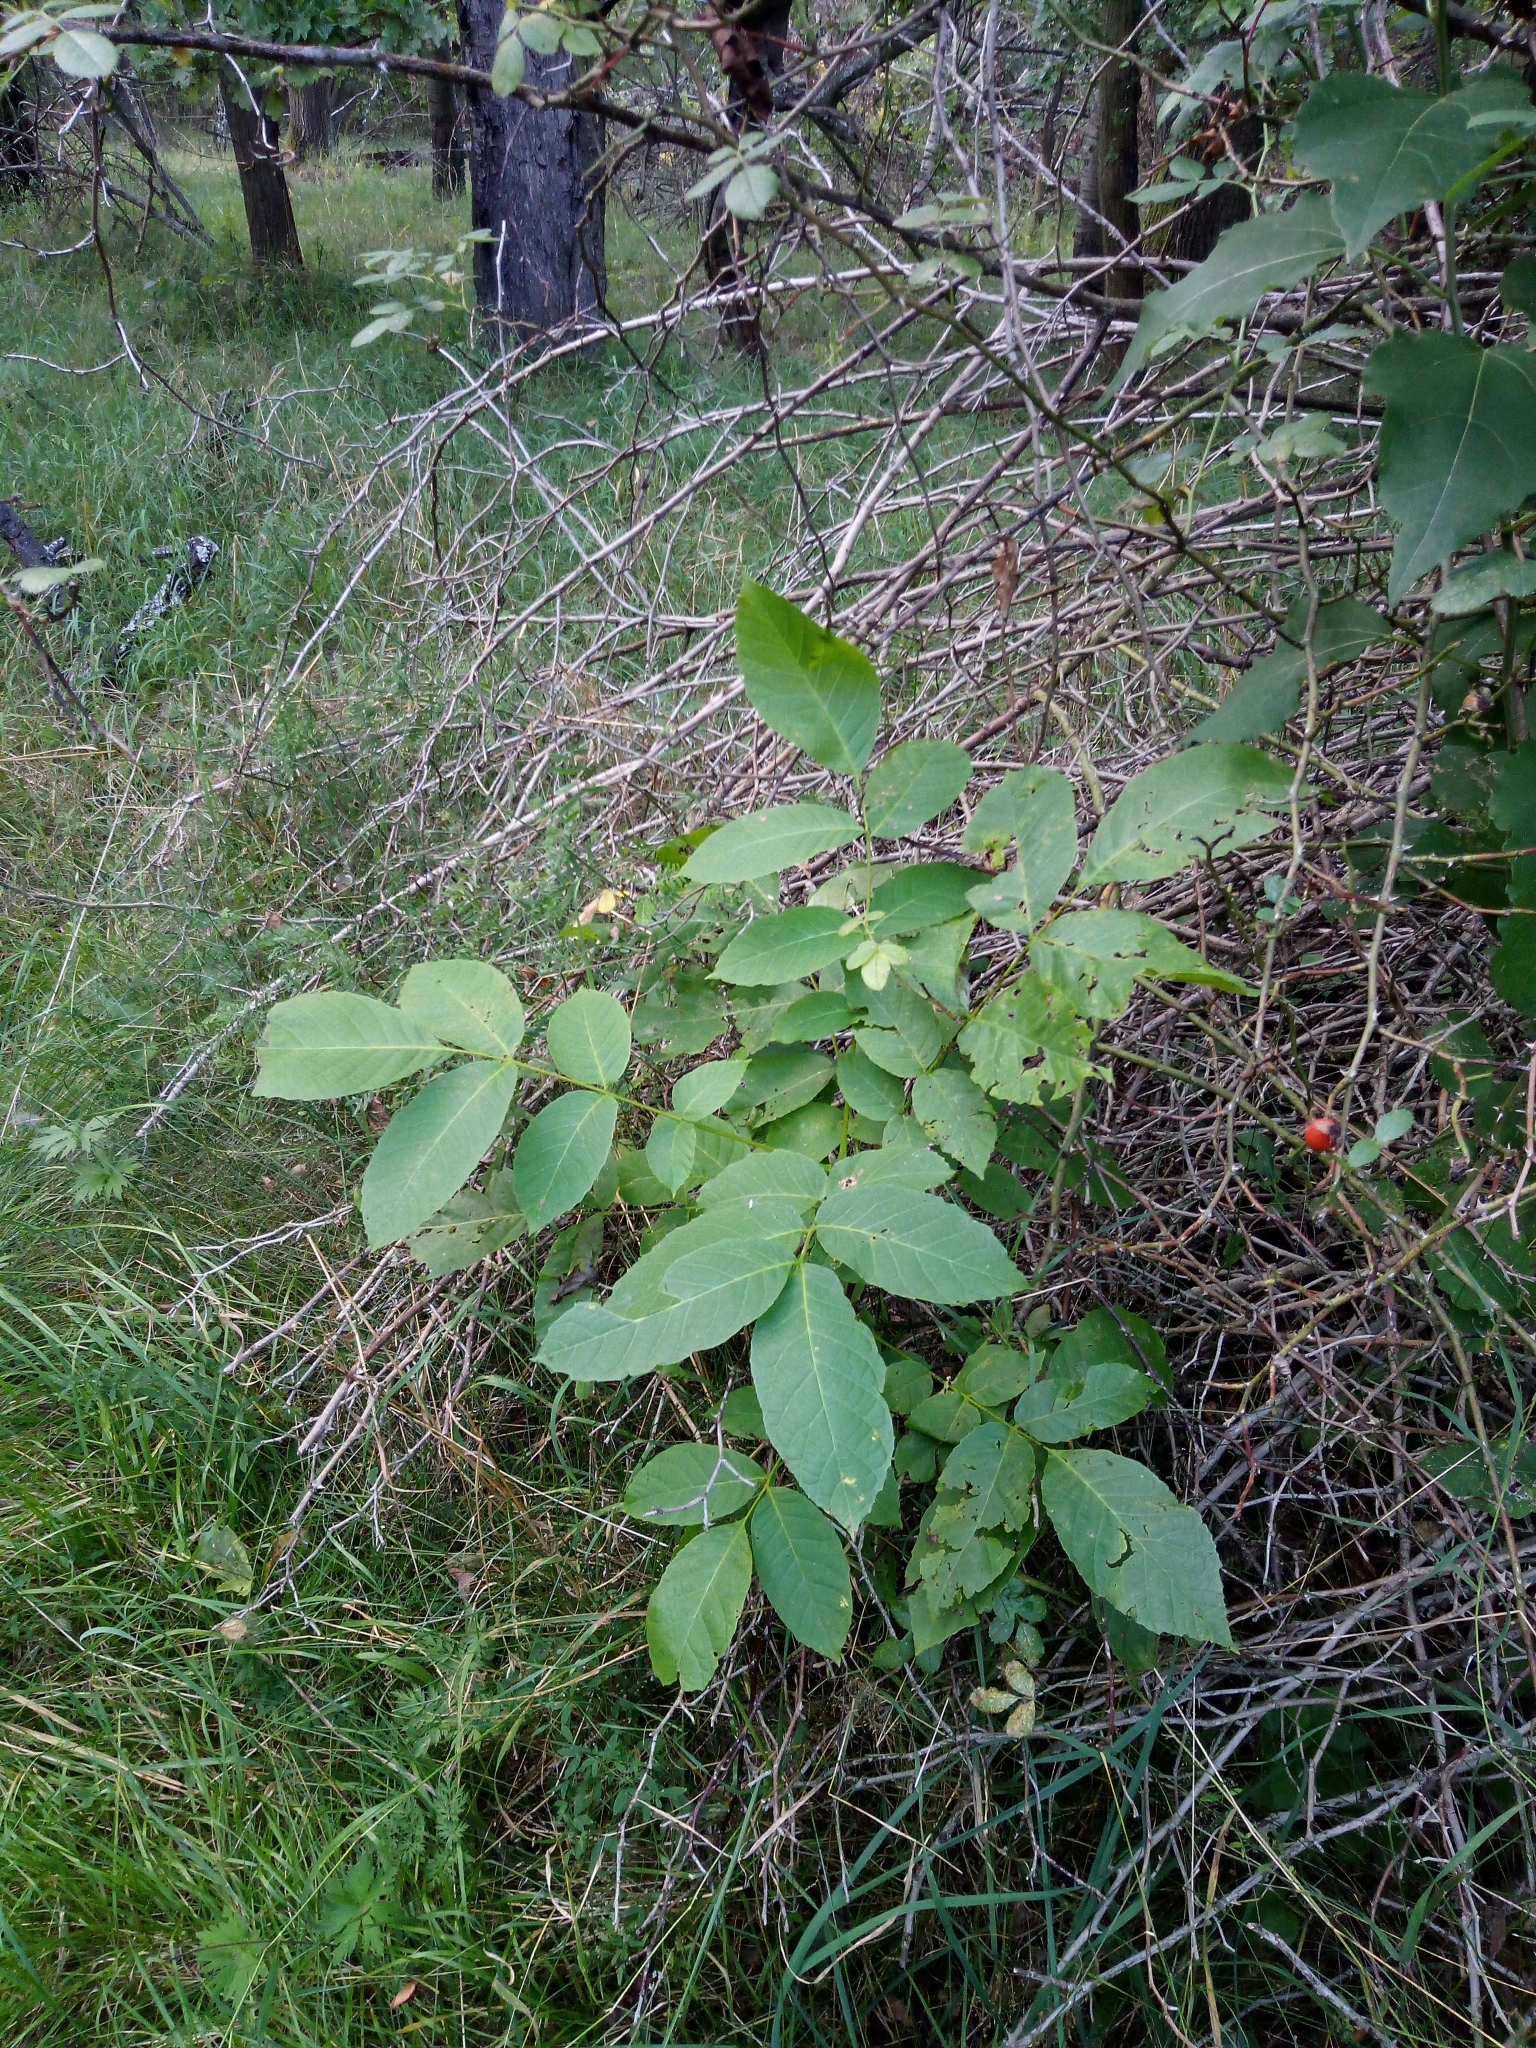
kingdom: Plantae
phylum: Tracheophyta
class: Magnoliopsida
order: Fagales
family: Juglandaceae
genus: Juglans
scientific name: Juglans regia
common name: Walnut
